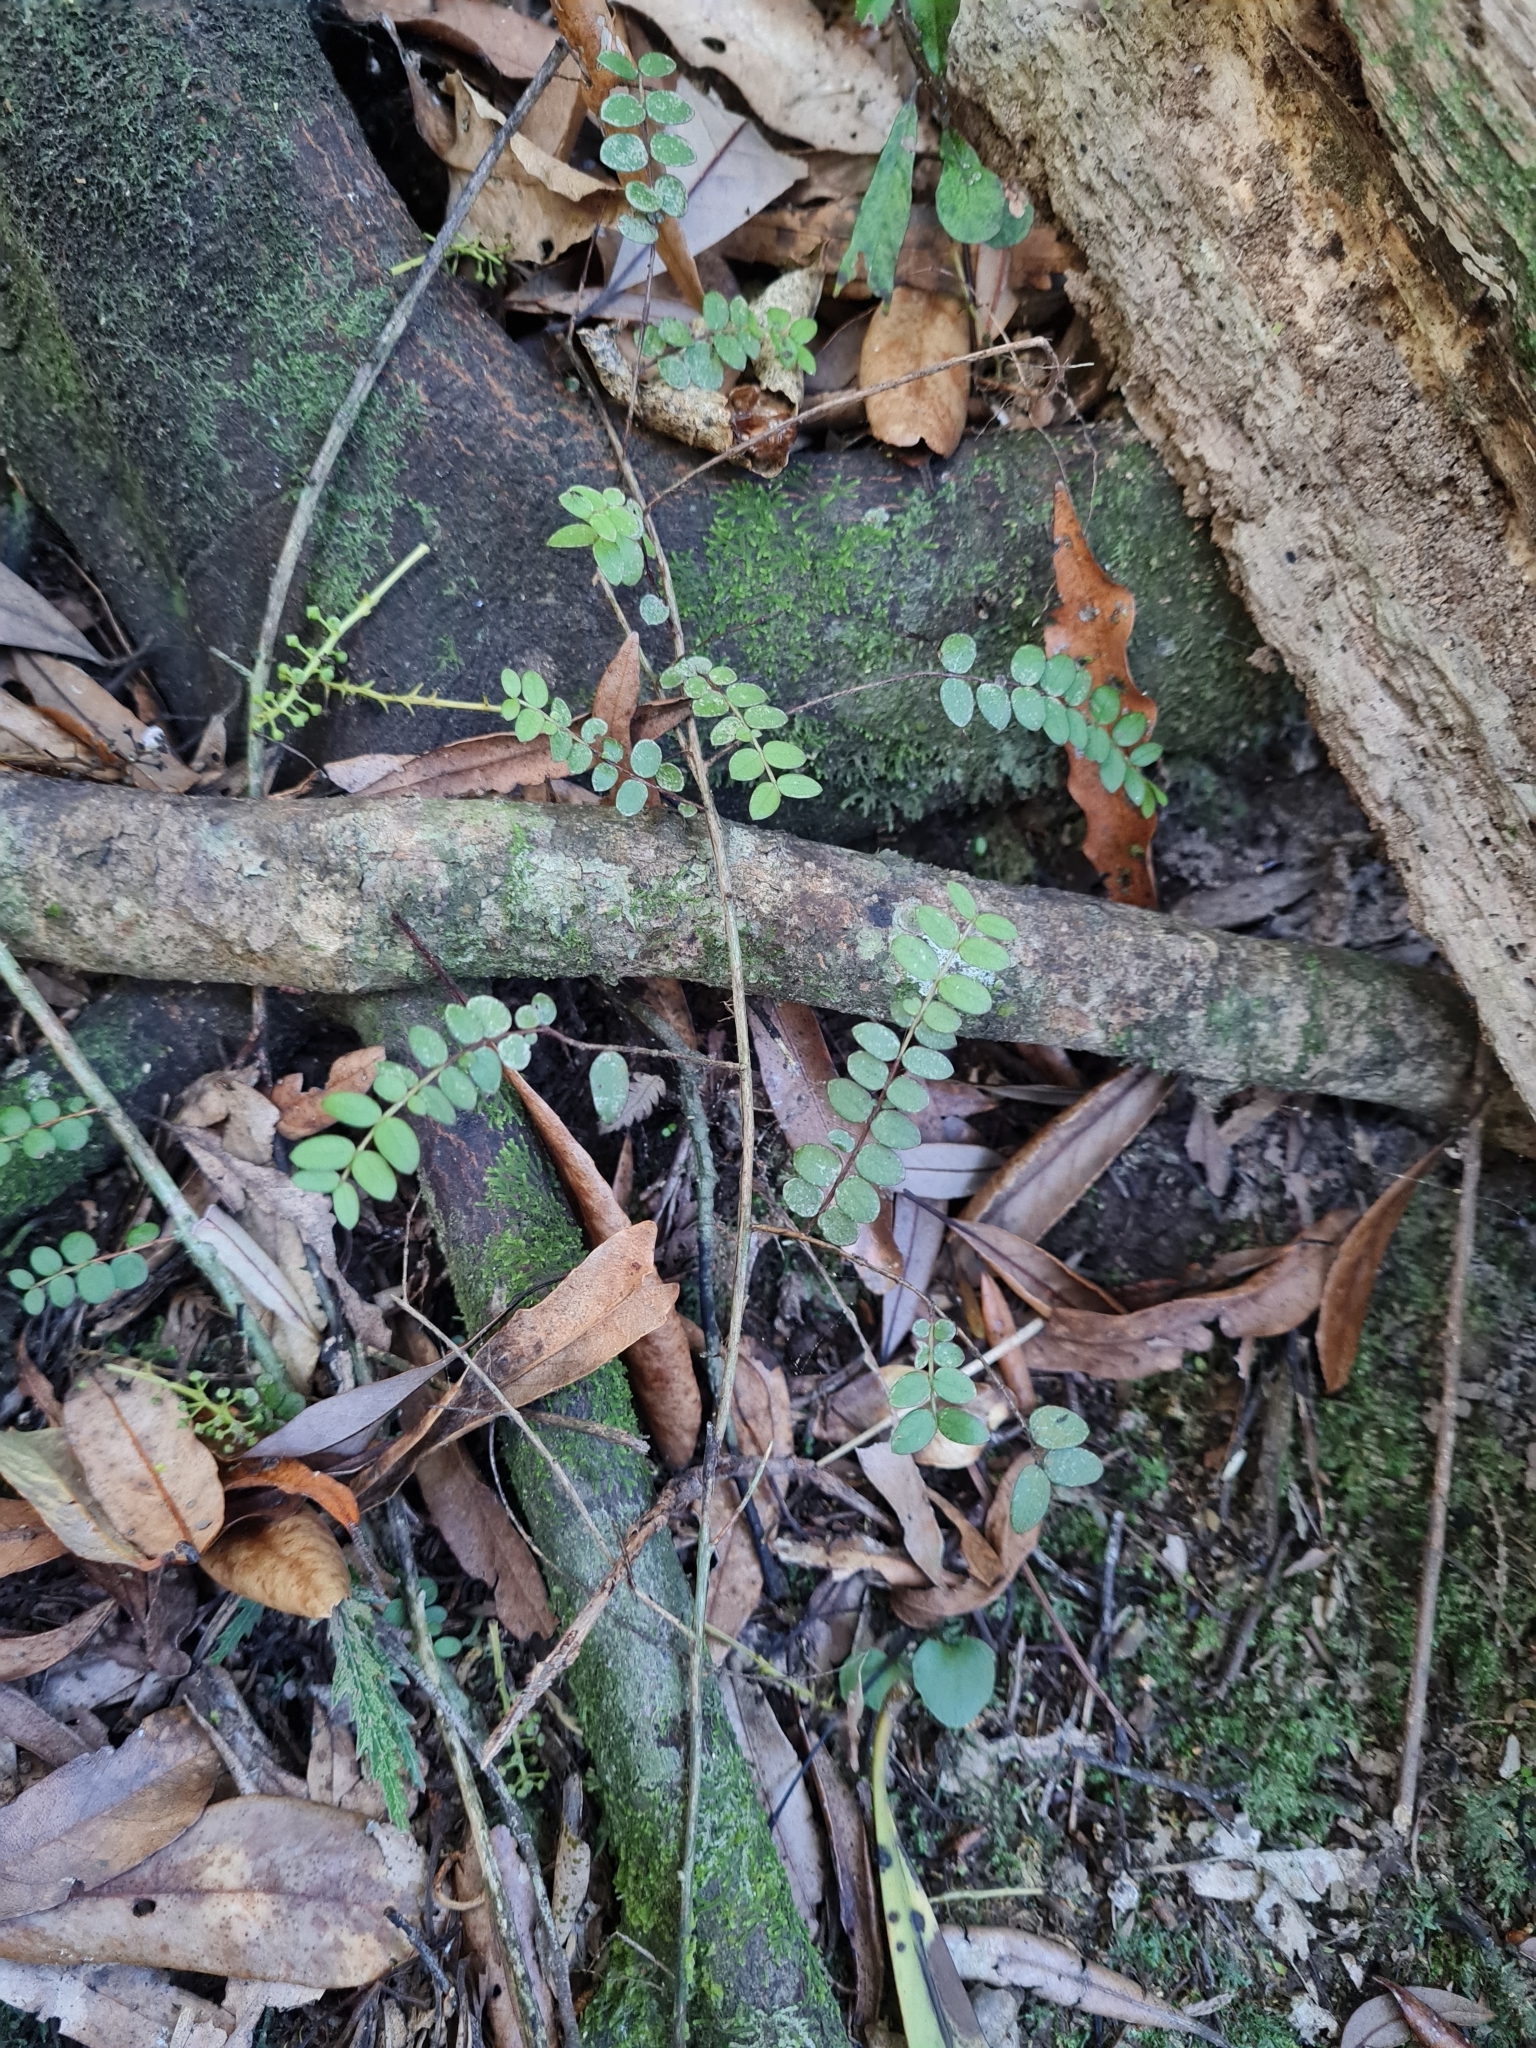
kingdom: Plantae
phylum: Tracheophyta
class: Magnoliopsida
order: Myrtales
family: Myrtaceae
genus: Metrosideros
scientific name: Metrosideros diffusa
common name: Small ratavine
